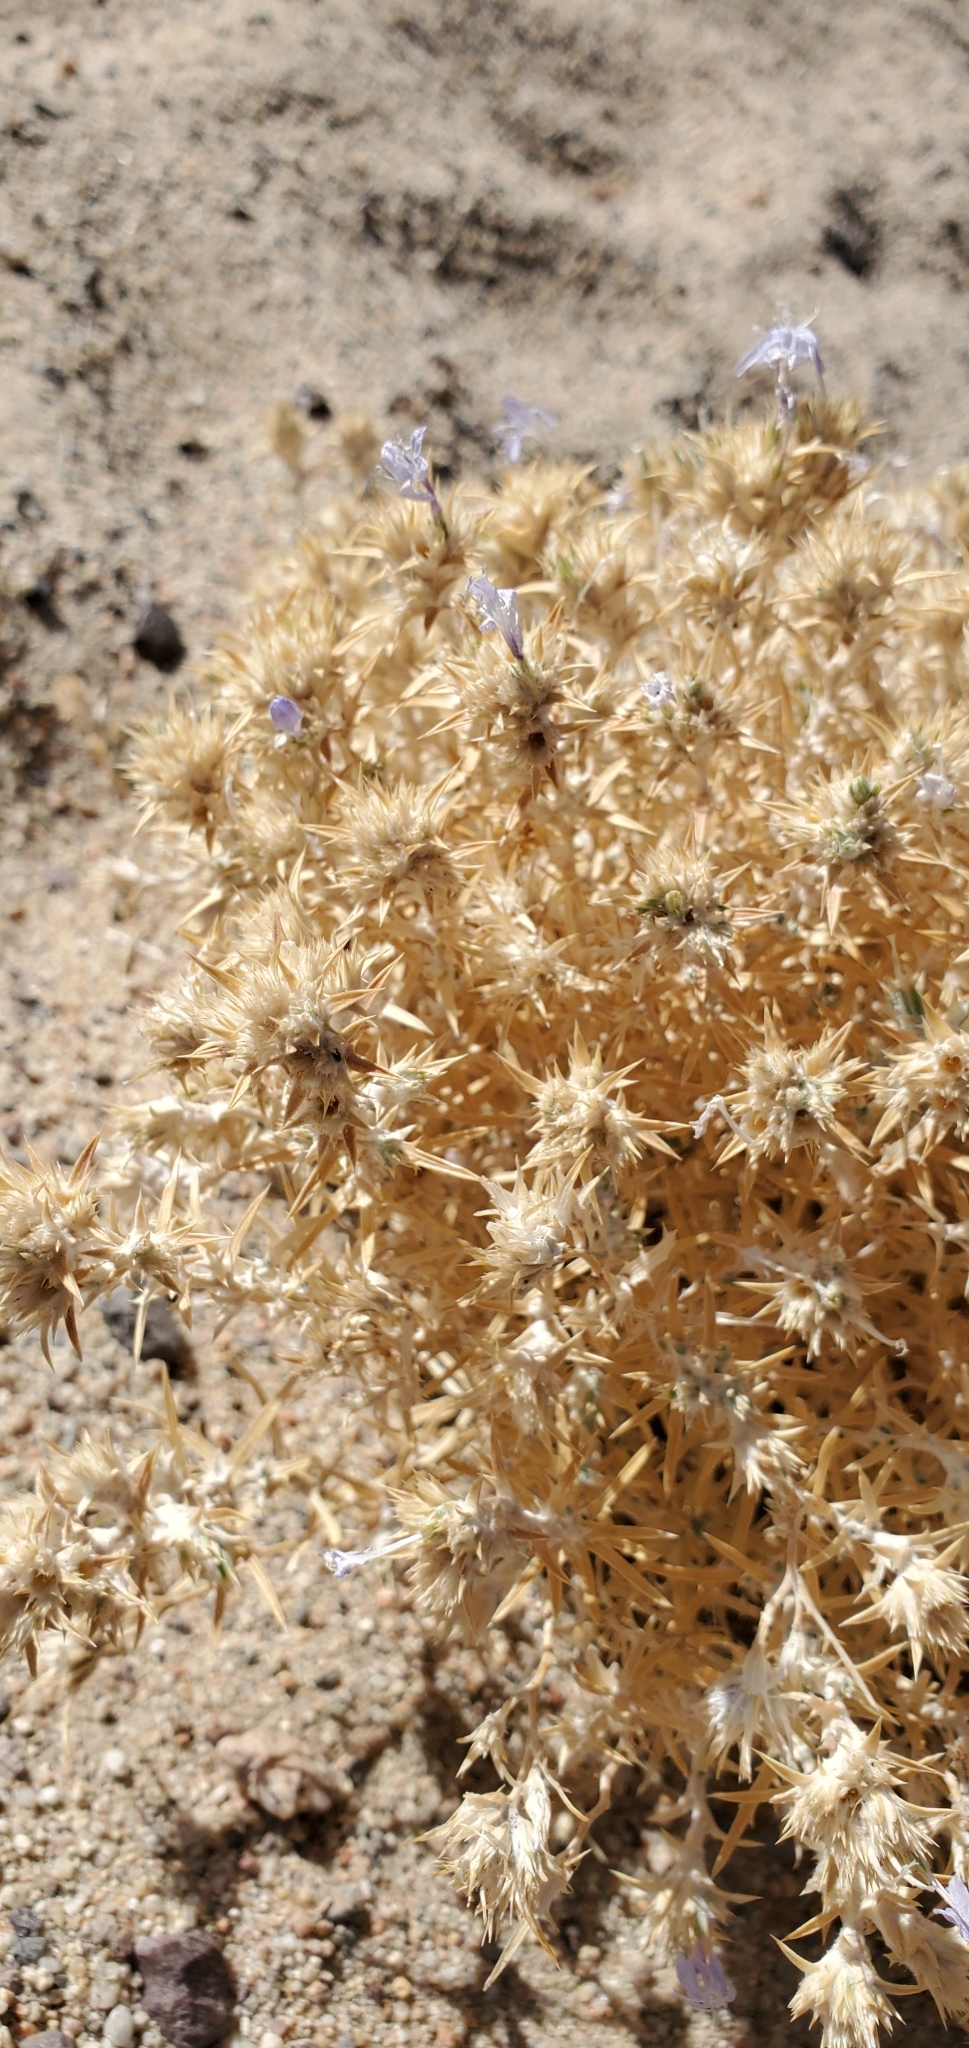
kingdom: Plantae
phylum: Tracheophyta
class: Magnoliopsida
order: Ericales
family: Polemoniaceae
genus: Eriastrum
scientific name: Eriastrum densifolium
